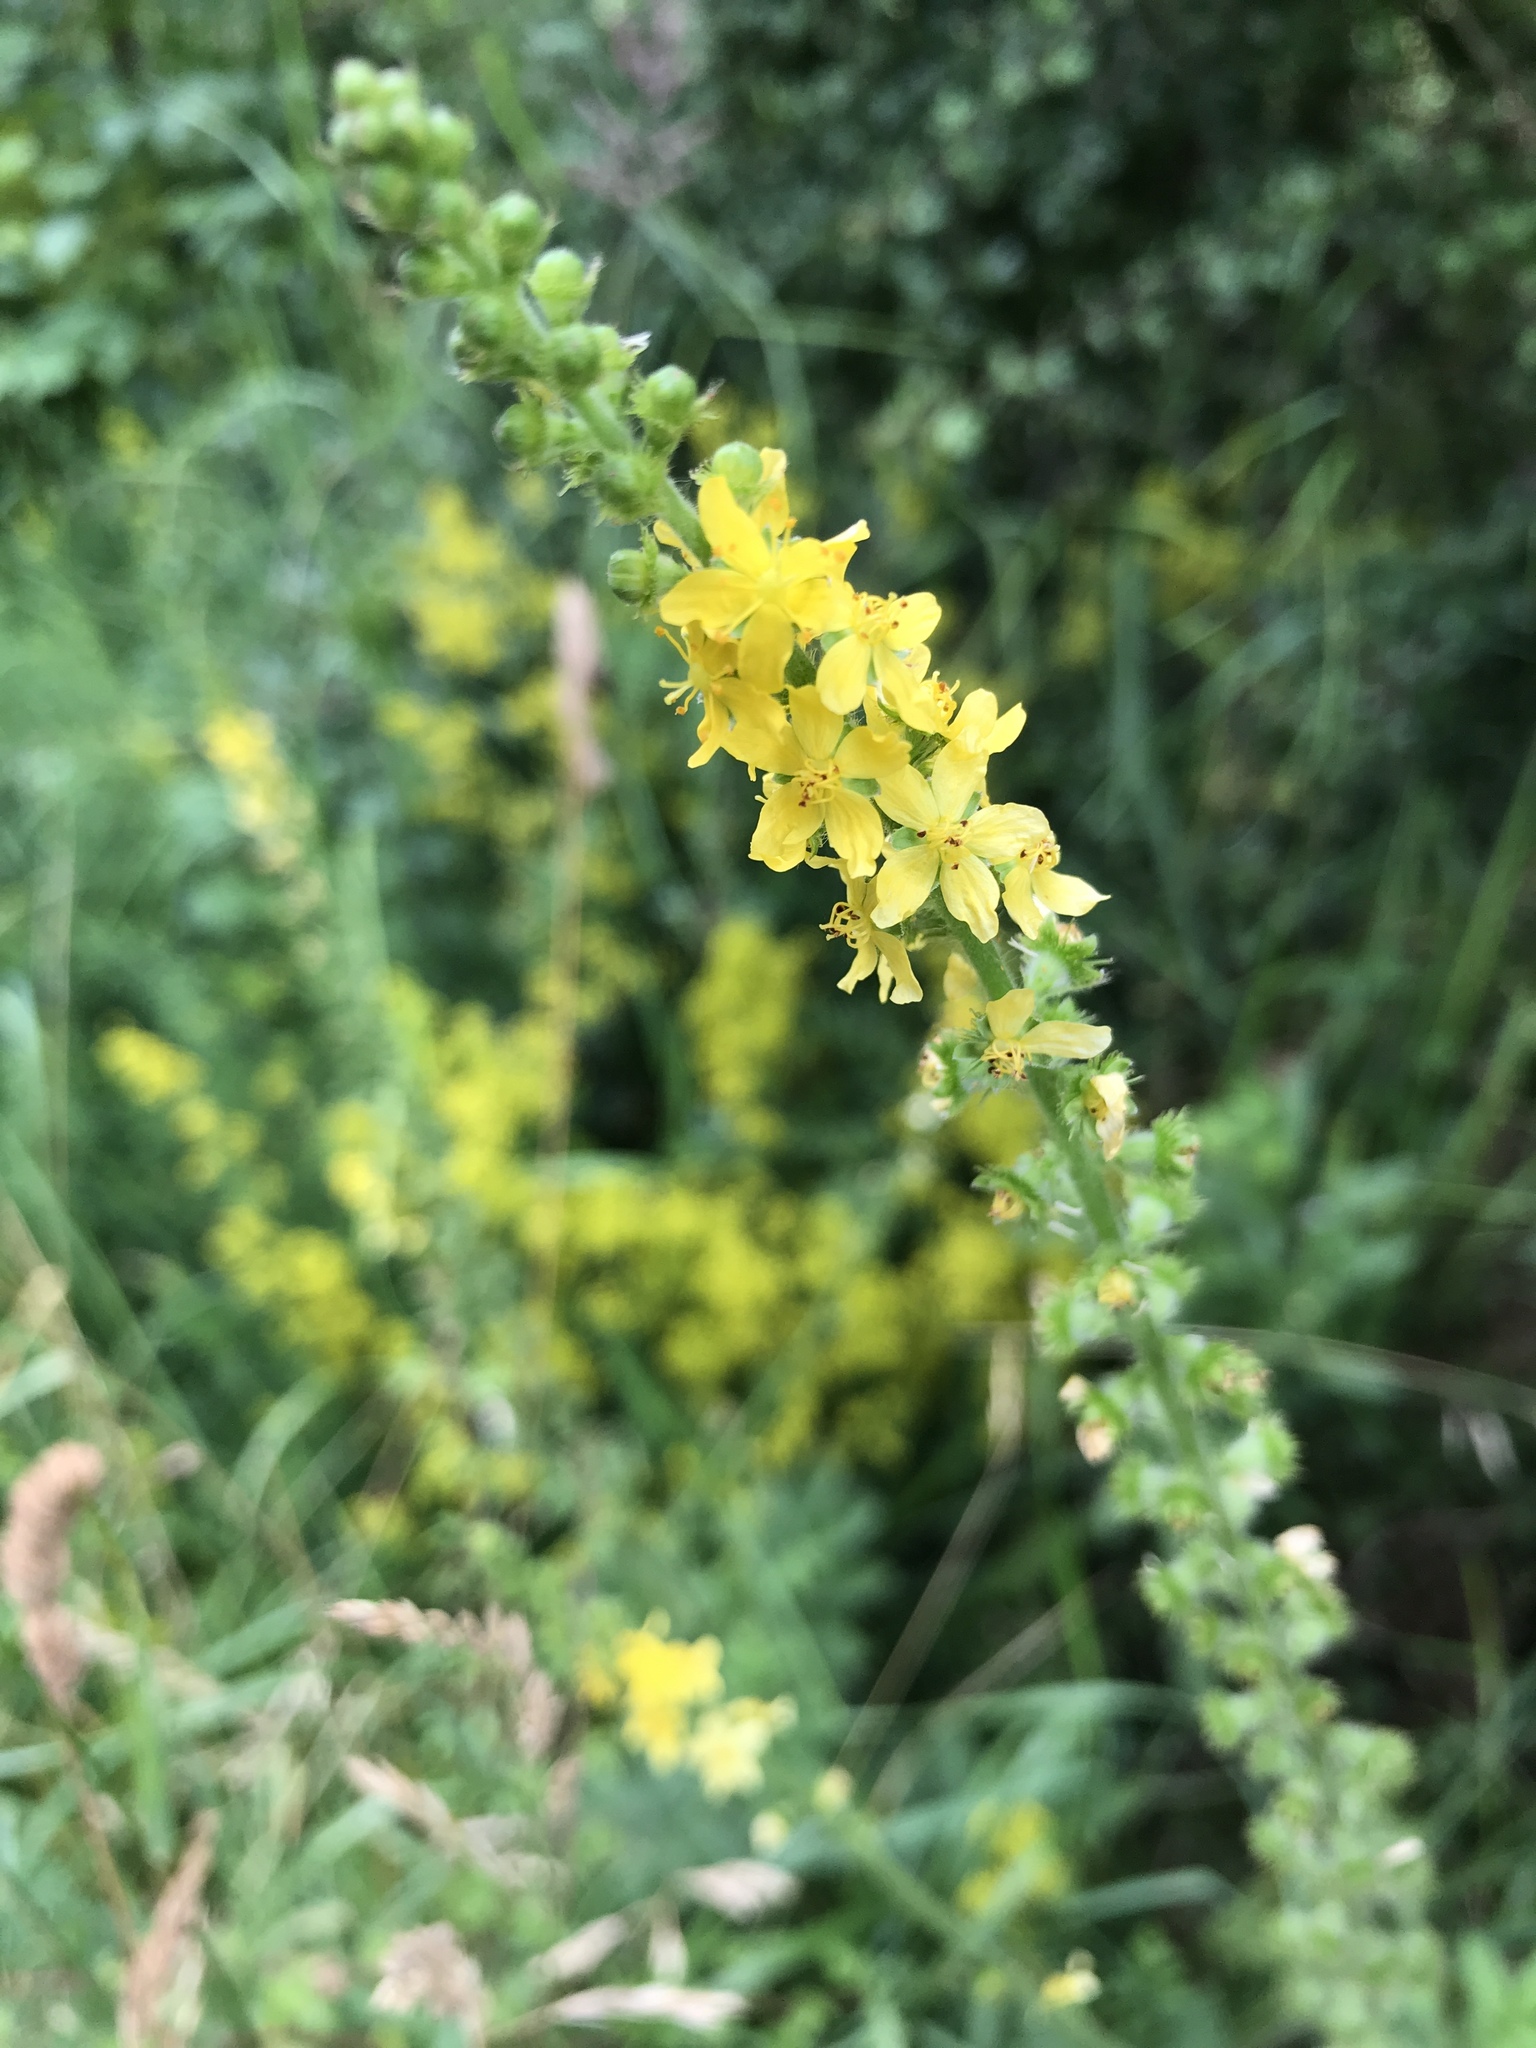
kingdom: Plantae
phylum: Tracheophyta
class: Magnoliopsida
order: Rosales
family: Rosaceae
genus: Agrimonia
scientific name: Agrimonia eupatoria
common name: Agrimony
